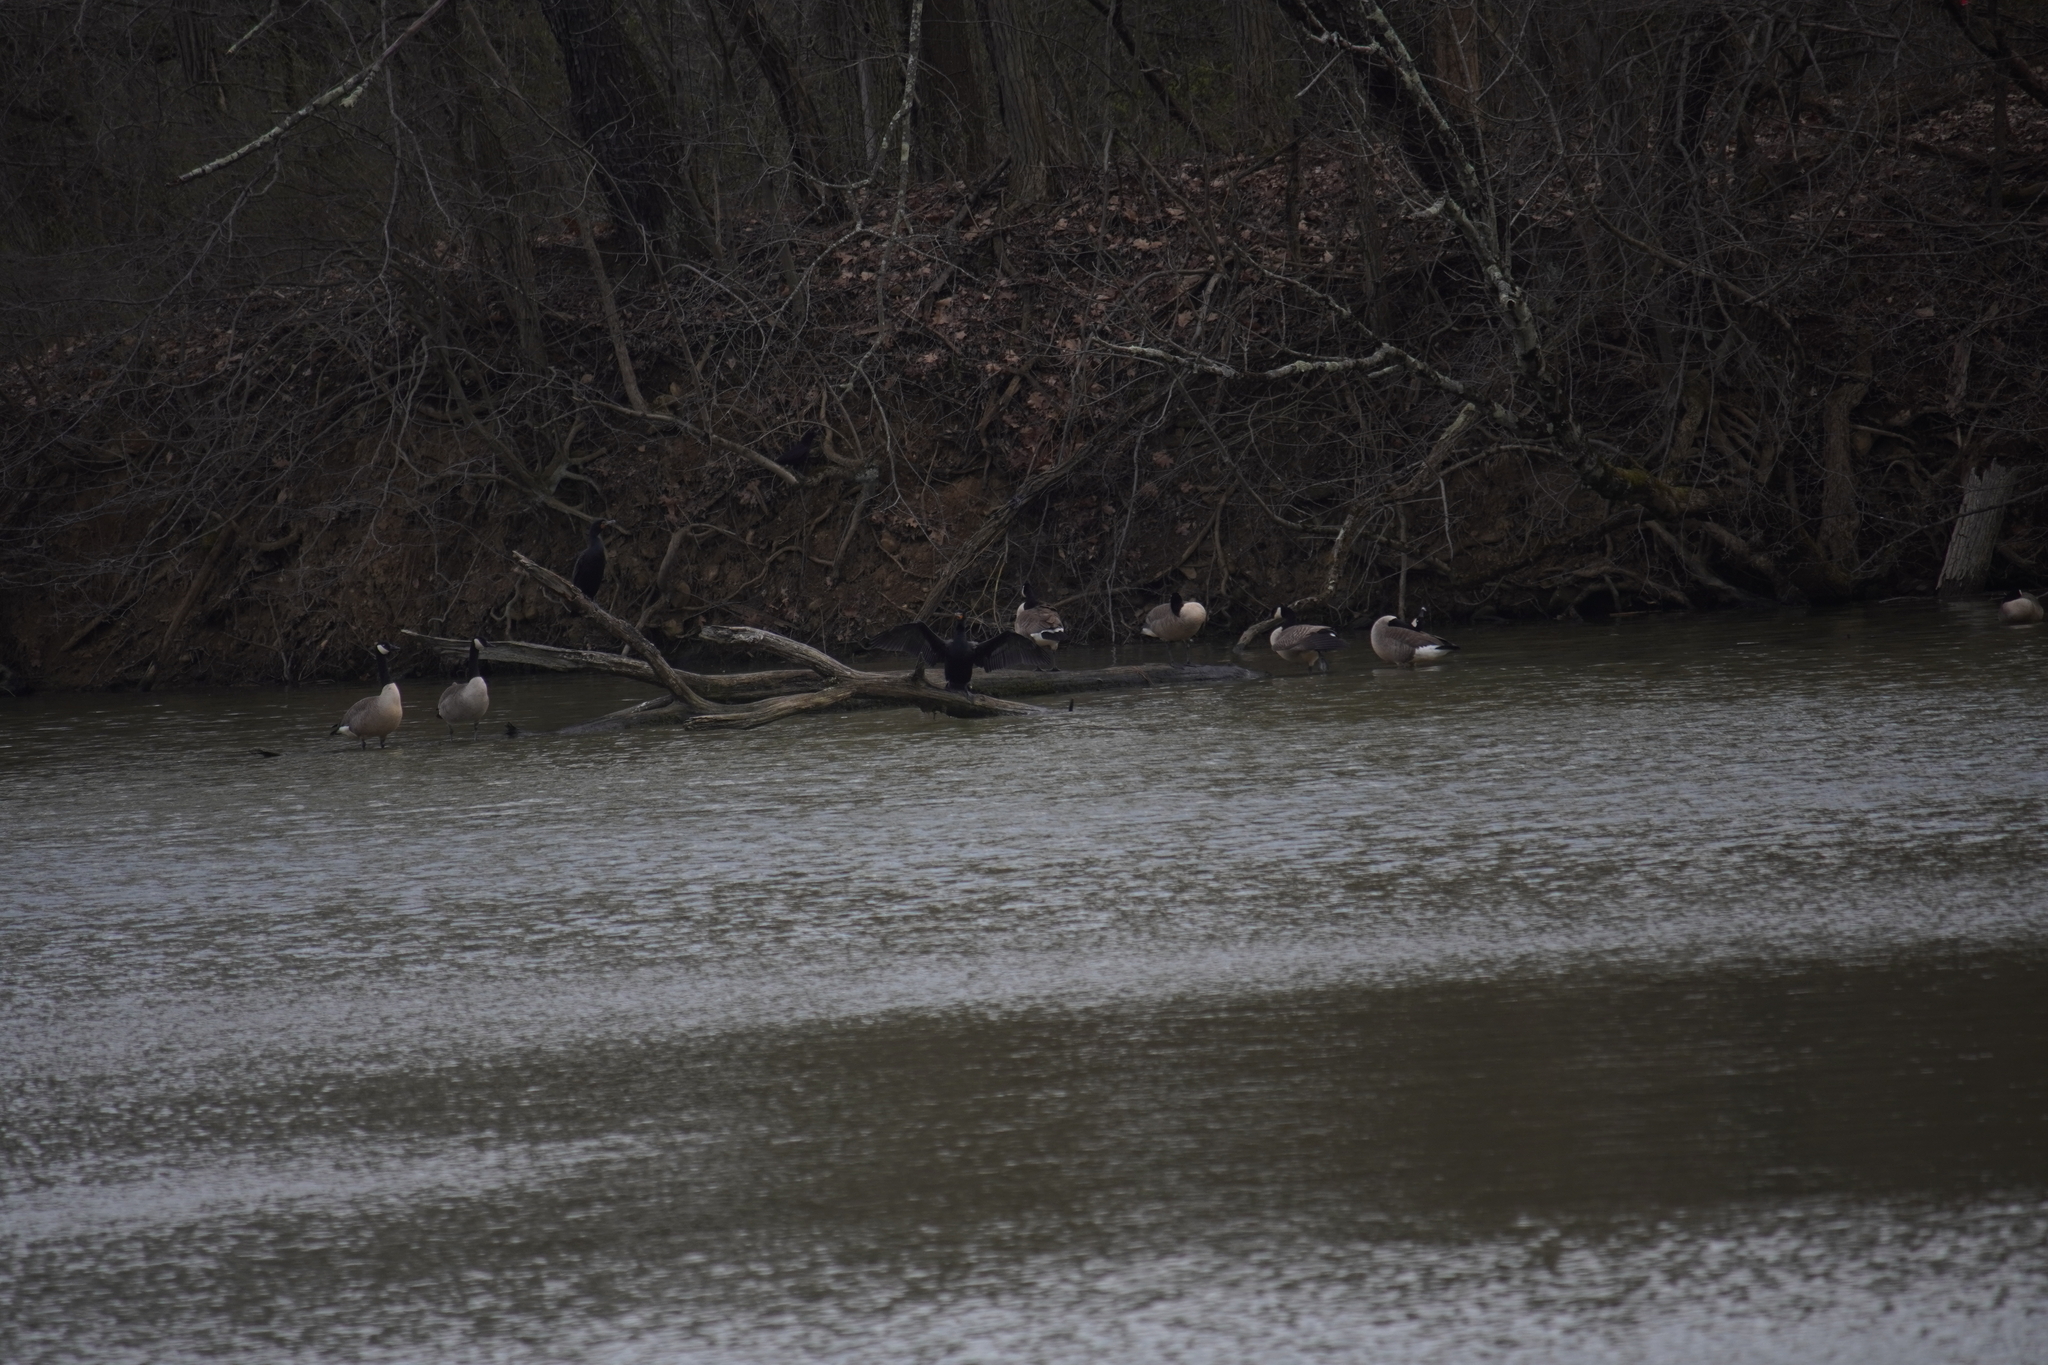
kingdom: Animalia
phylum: Chordata
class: Aves
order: Suliformes
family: Phalacrocoracidae
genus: Phalacrocorax
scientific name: Phalacrocorax auritus
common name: Double-crested cormorant
